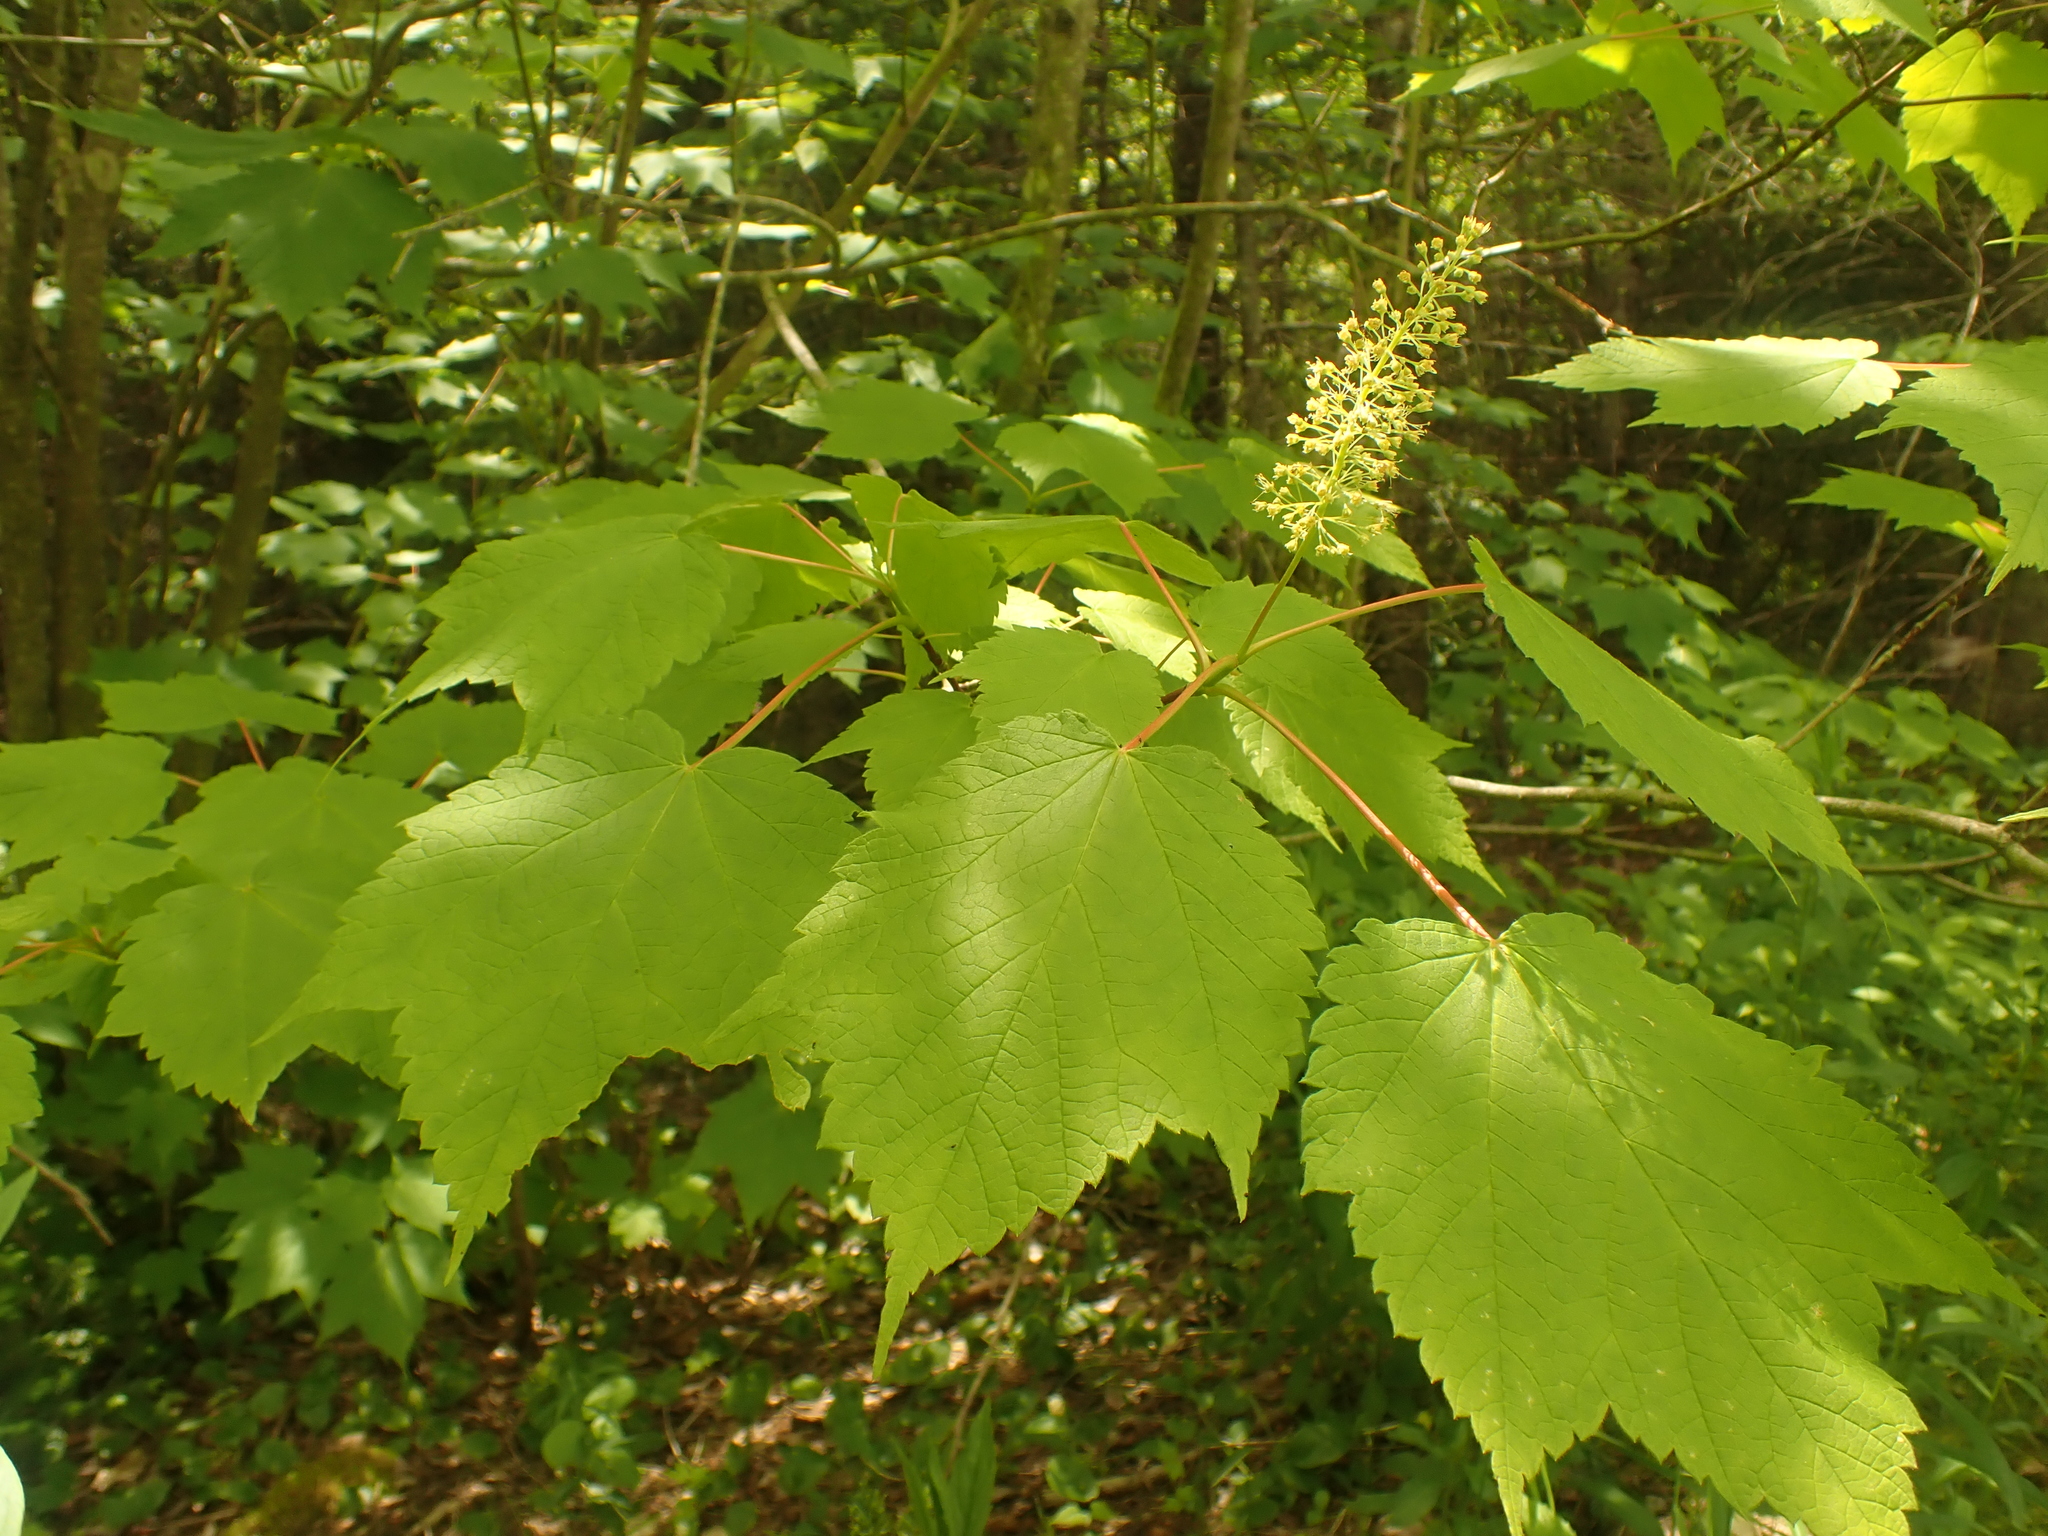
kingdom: Plantae
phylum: Tracheophyta
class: Magnoliopsida
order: Sapindales
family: Sapindaceae
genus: Acer
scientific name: Acer spicatum
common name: Mountain maple
